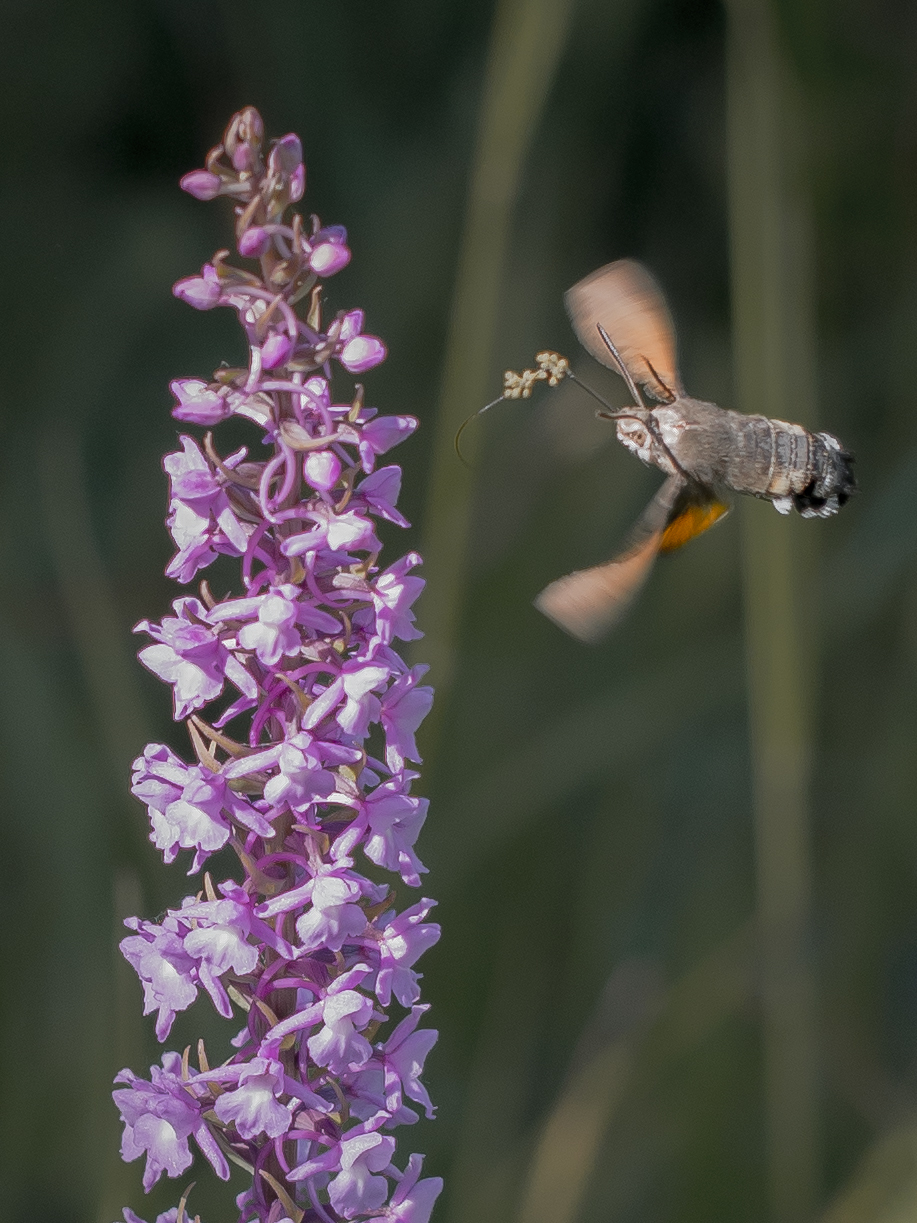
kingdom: Plantae
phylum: Tracheophyta
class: Liliopsida
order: Asparagales
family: Orchidaceae
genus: Gymnadenia
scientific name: Gymnadenia conopsea
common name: Fragrant orchid
